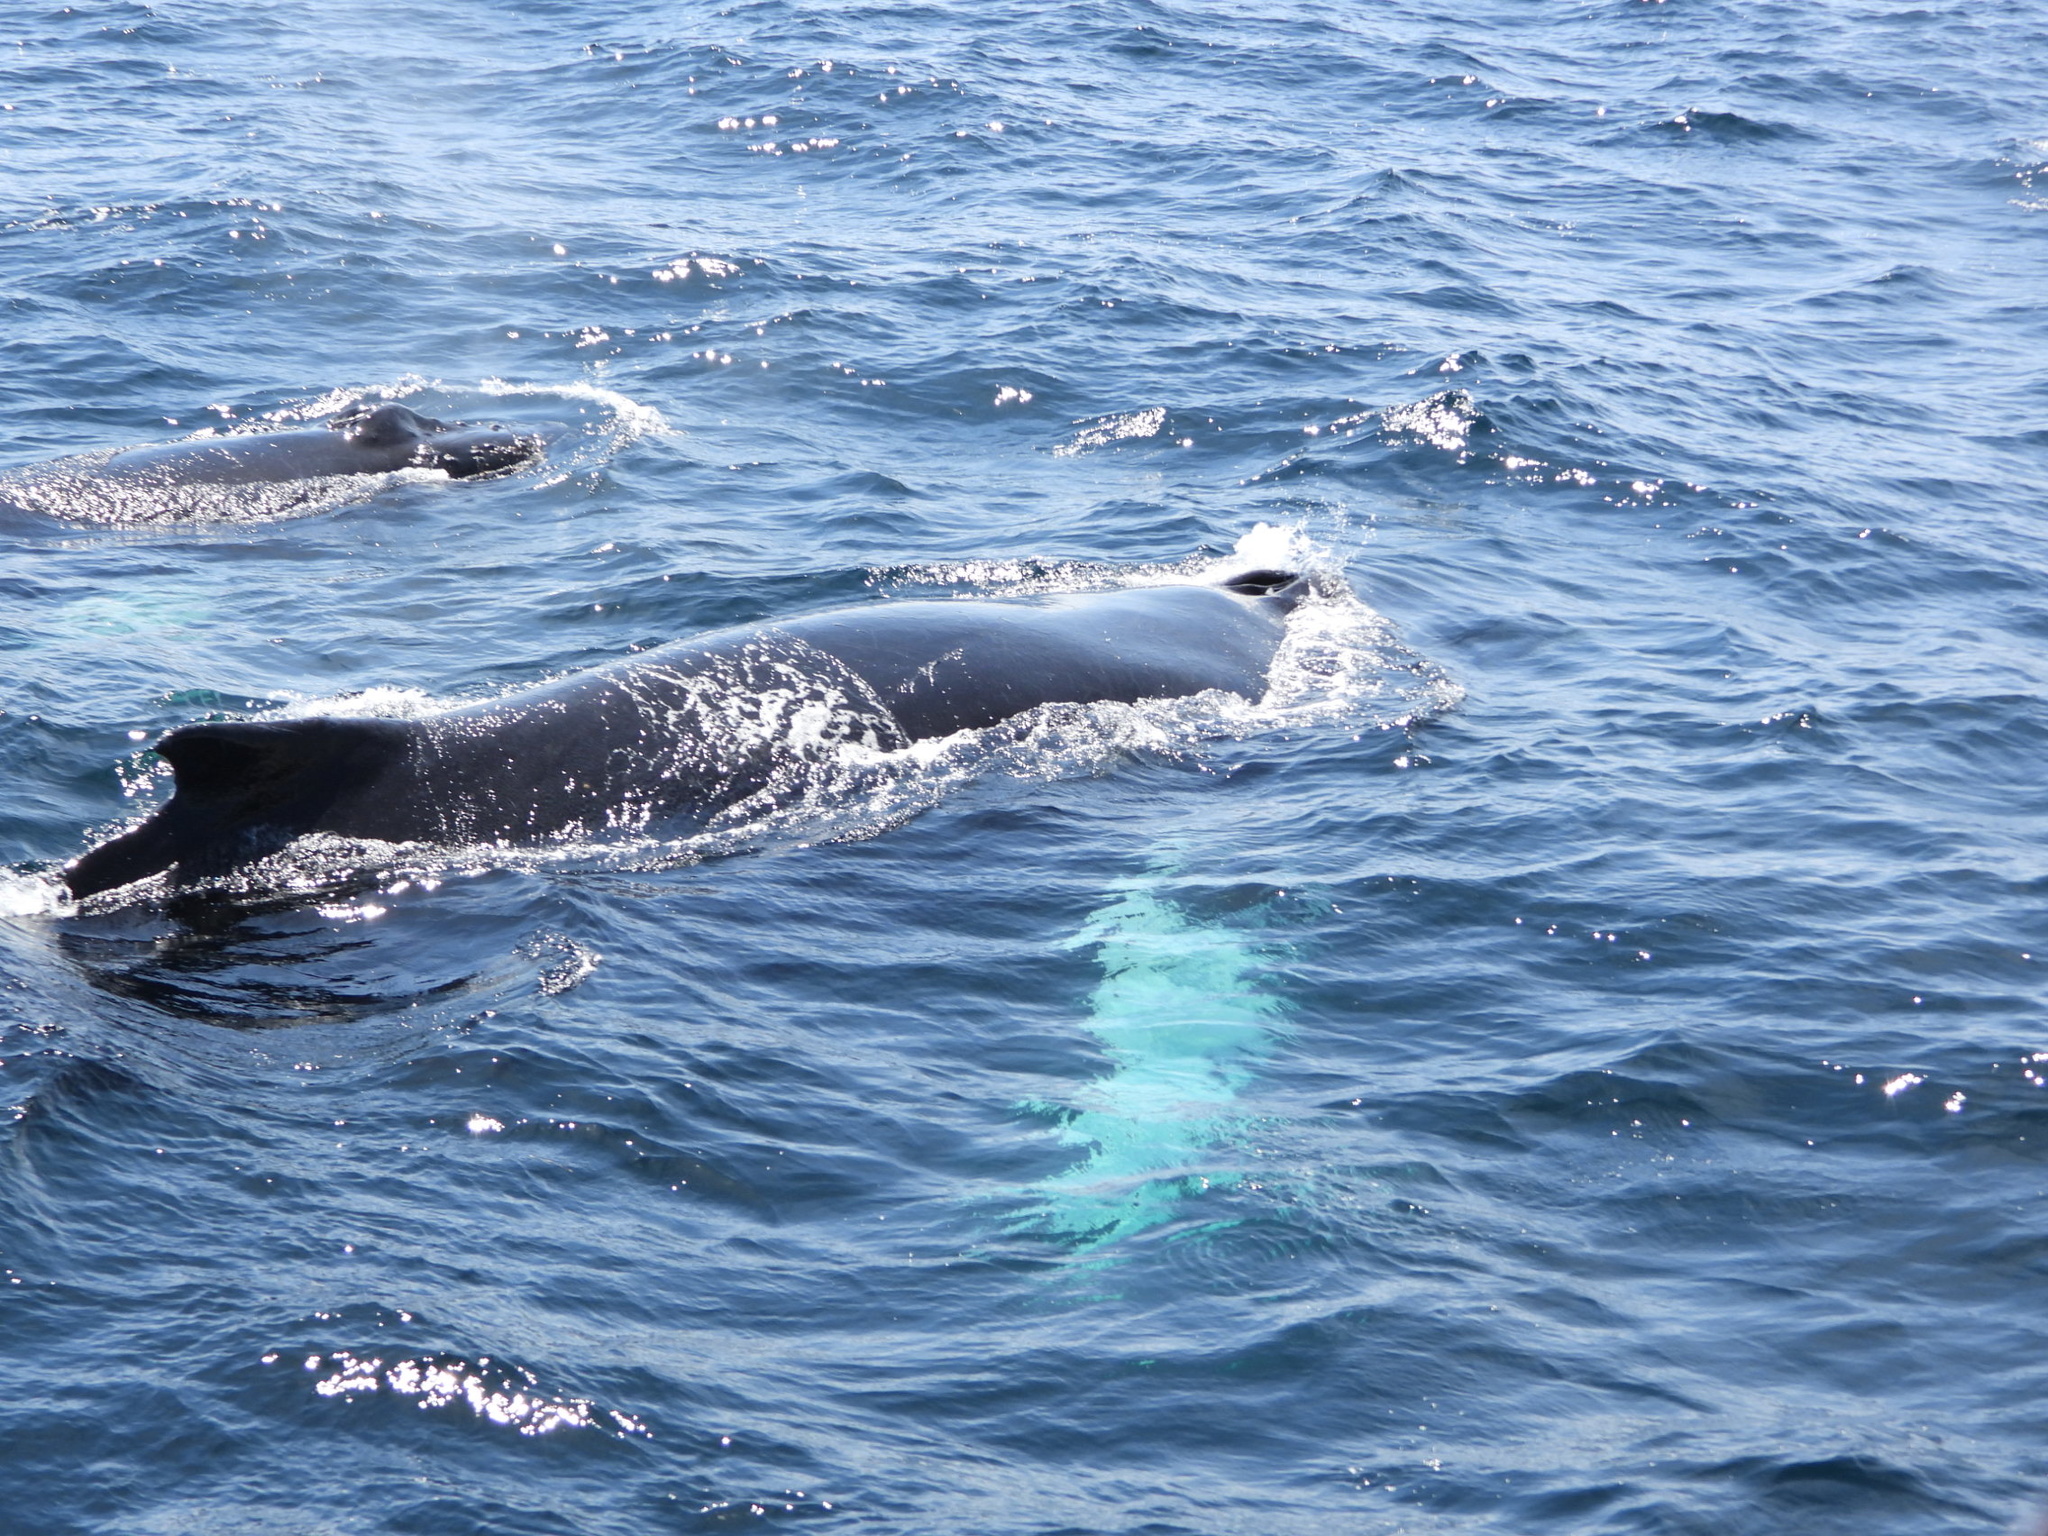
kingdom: Animalia
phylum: Chordata
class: Mammalia
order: Cetacea
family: Balaenopteridae
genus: Megaptera
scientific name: Megaptera novaeangliae
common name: Humpback whale
